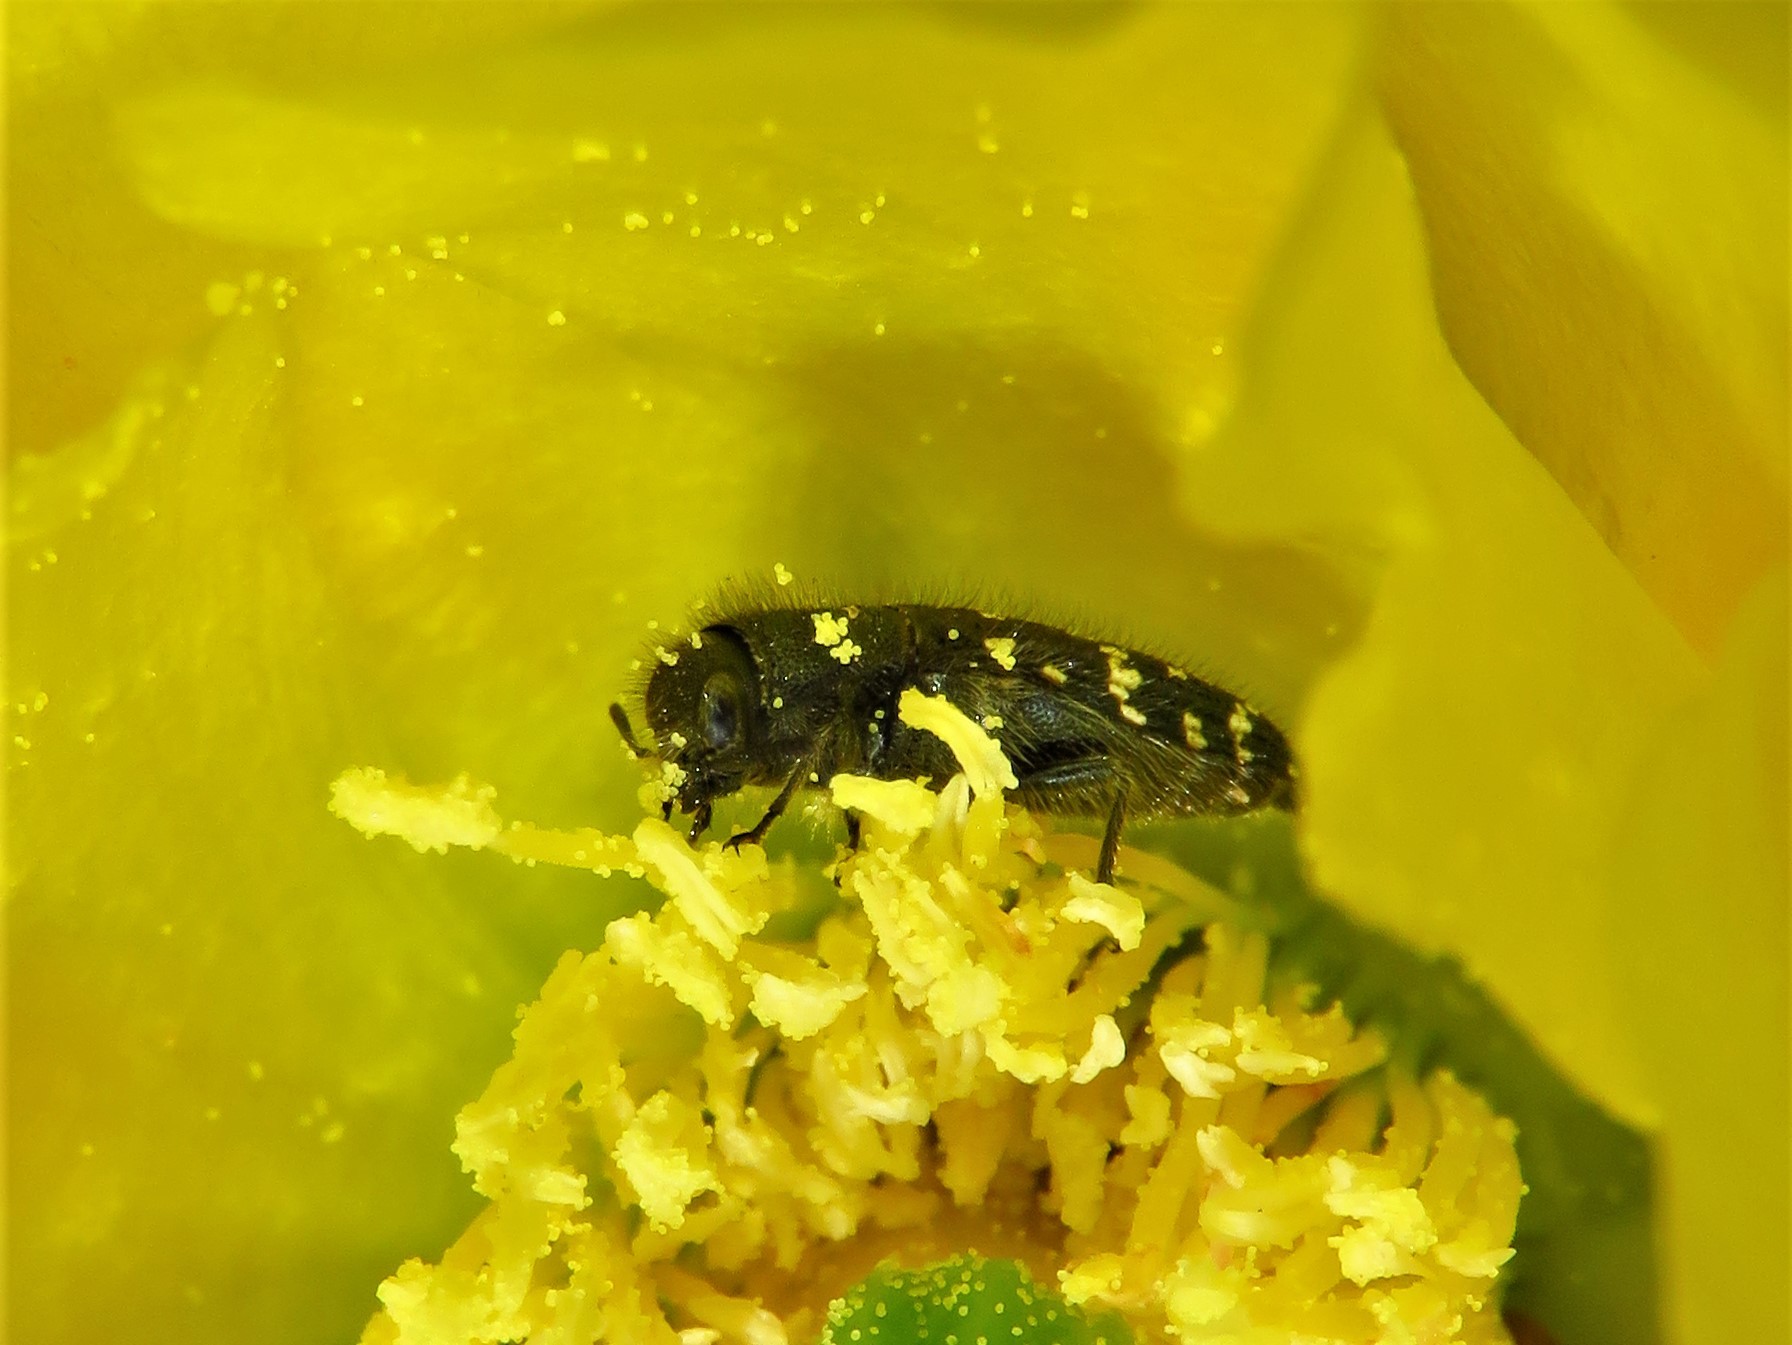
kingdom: Animalia
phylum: Arthropoda
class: Insecta
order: Coleoptera
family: Buprestidae
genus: Acmaeodera
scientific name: Acmaeodera ornatoides
